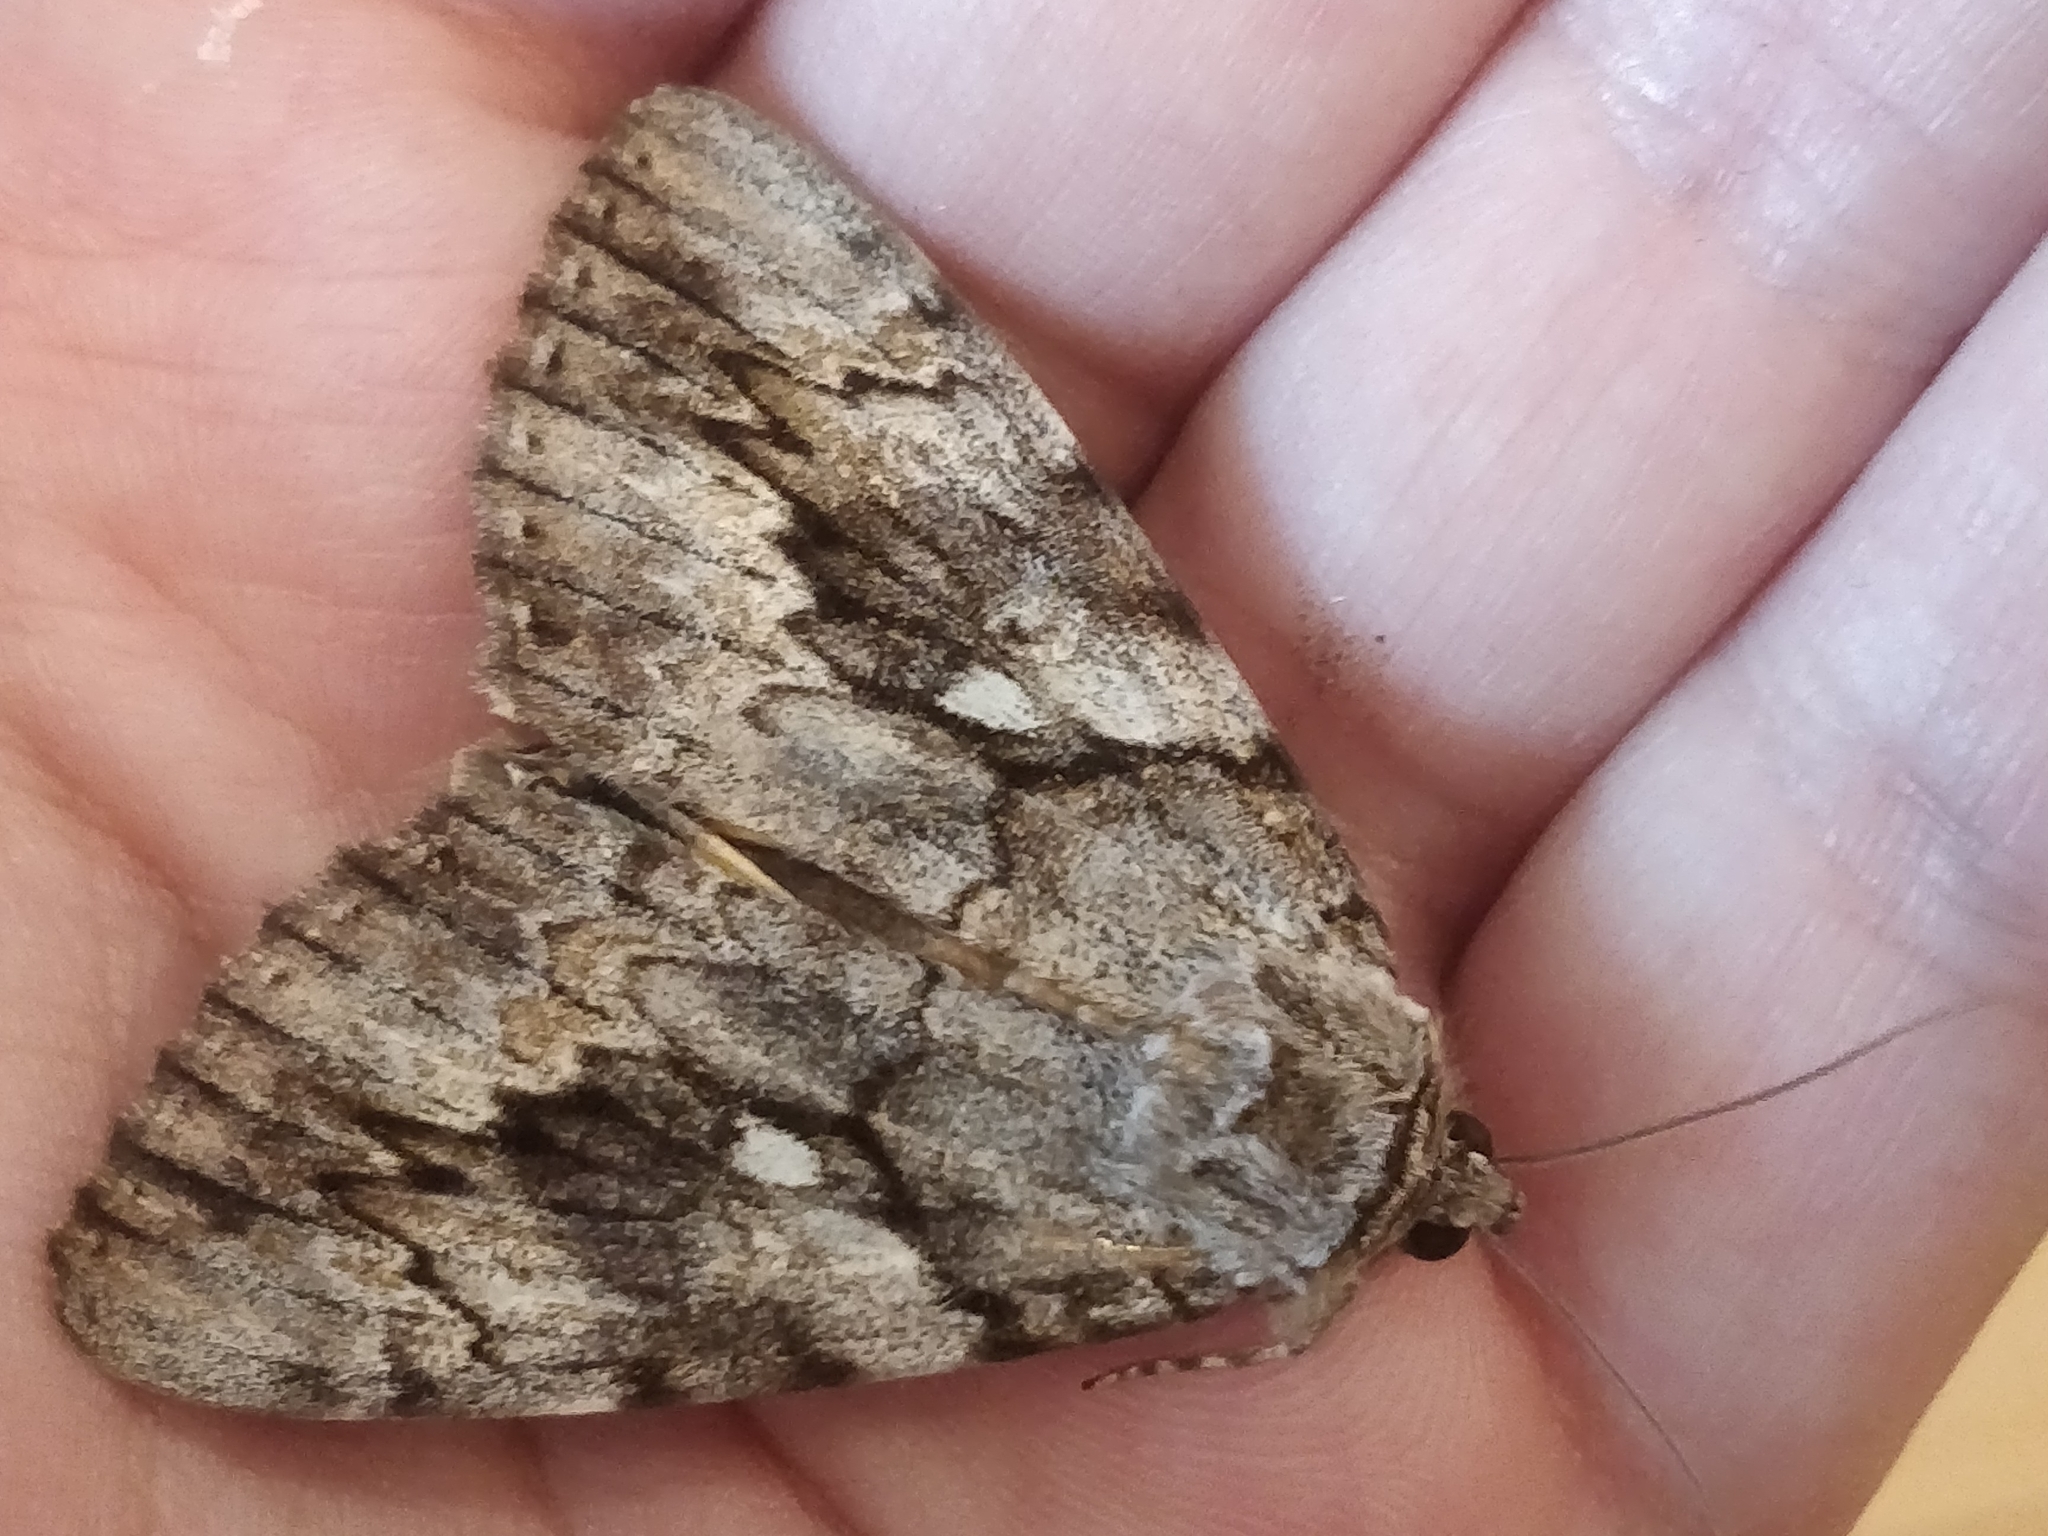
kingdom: Animalia
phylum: Arthropoda
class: Insecta
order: Lepidoptera
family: Erebidae
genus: Catocala
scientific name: Catocala cerogama
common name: Yellow banded underwing
